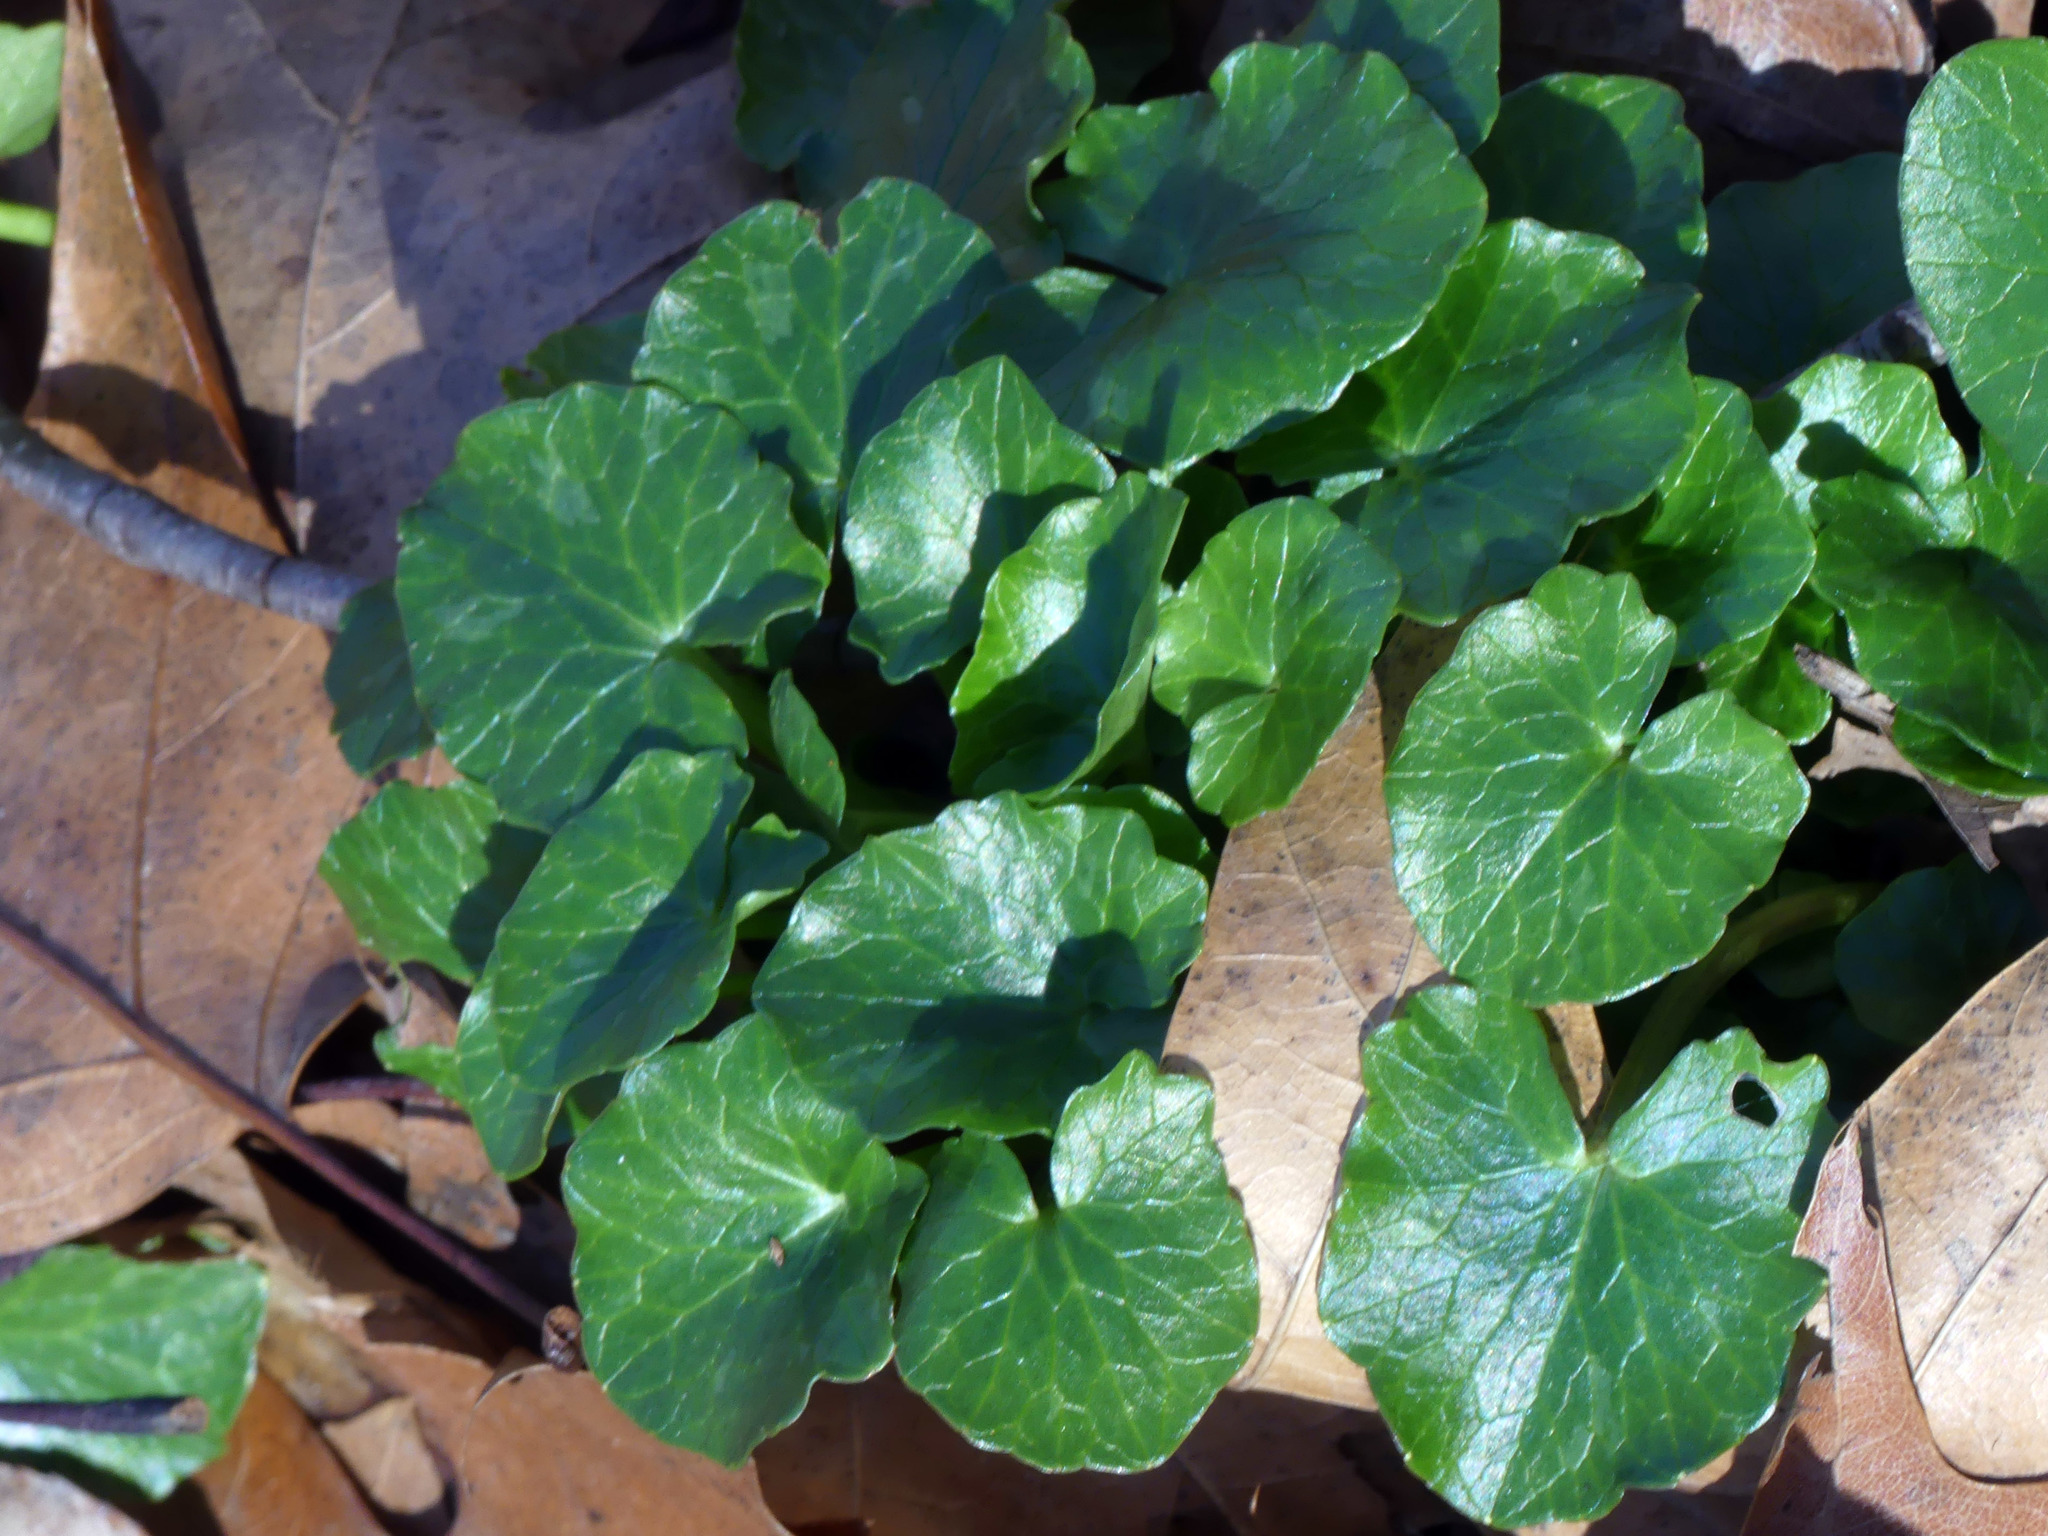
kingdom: Plantae
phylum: Tracheophyta
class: Magnoliopsida
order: Ranunculales
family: Ranunculaceae
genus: Ficaria
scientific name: Ficaria verna
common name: Lesser celandine
